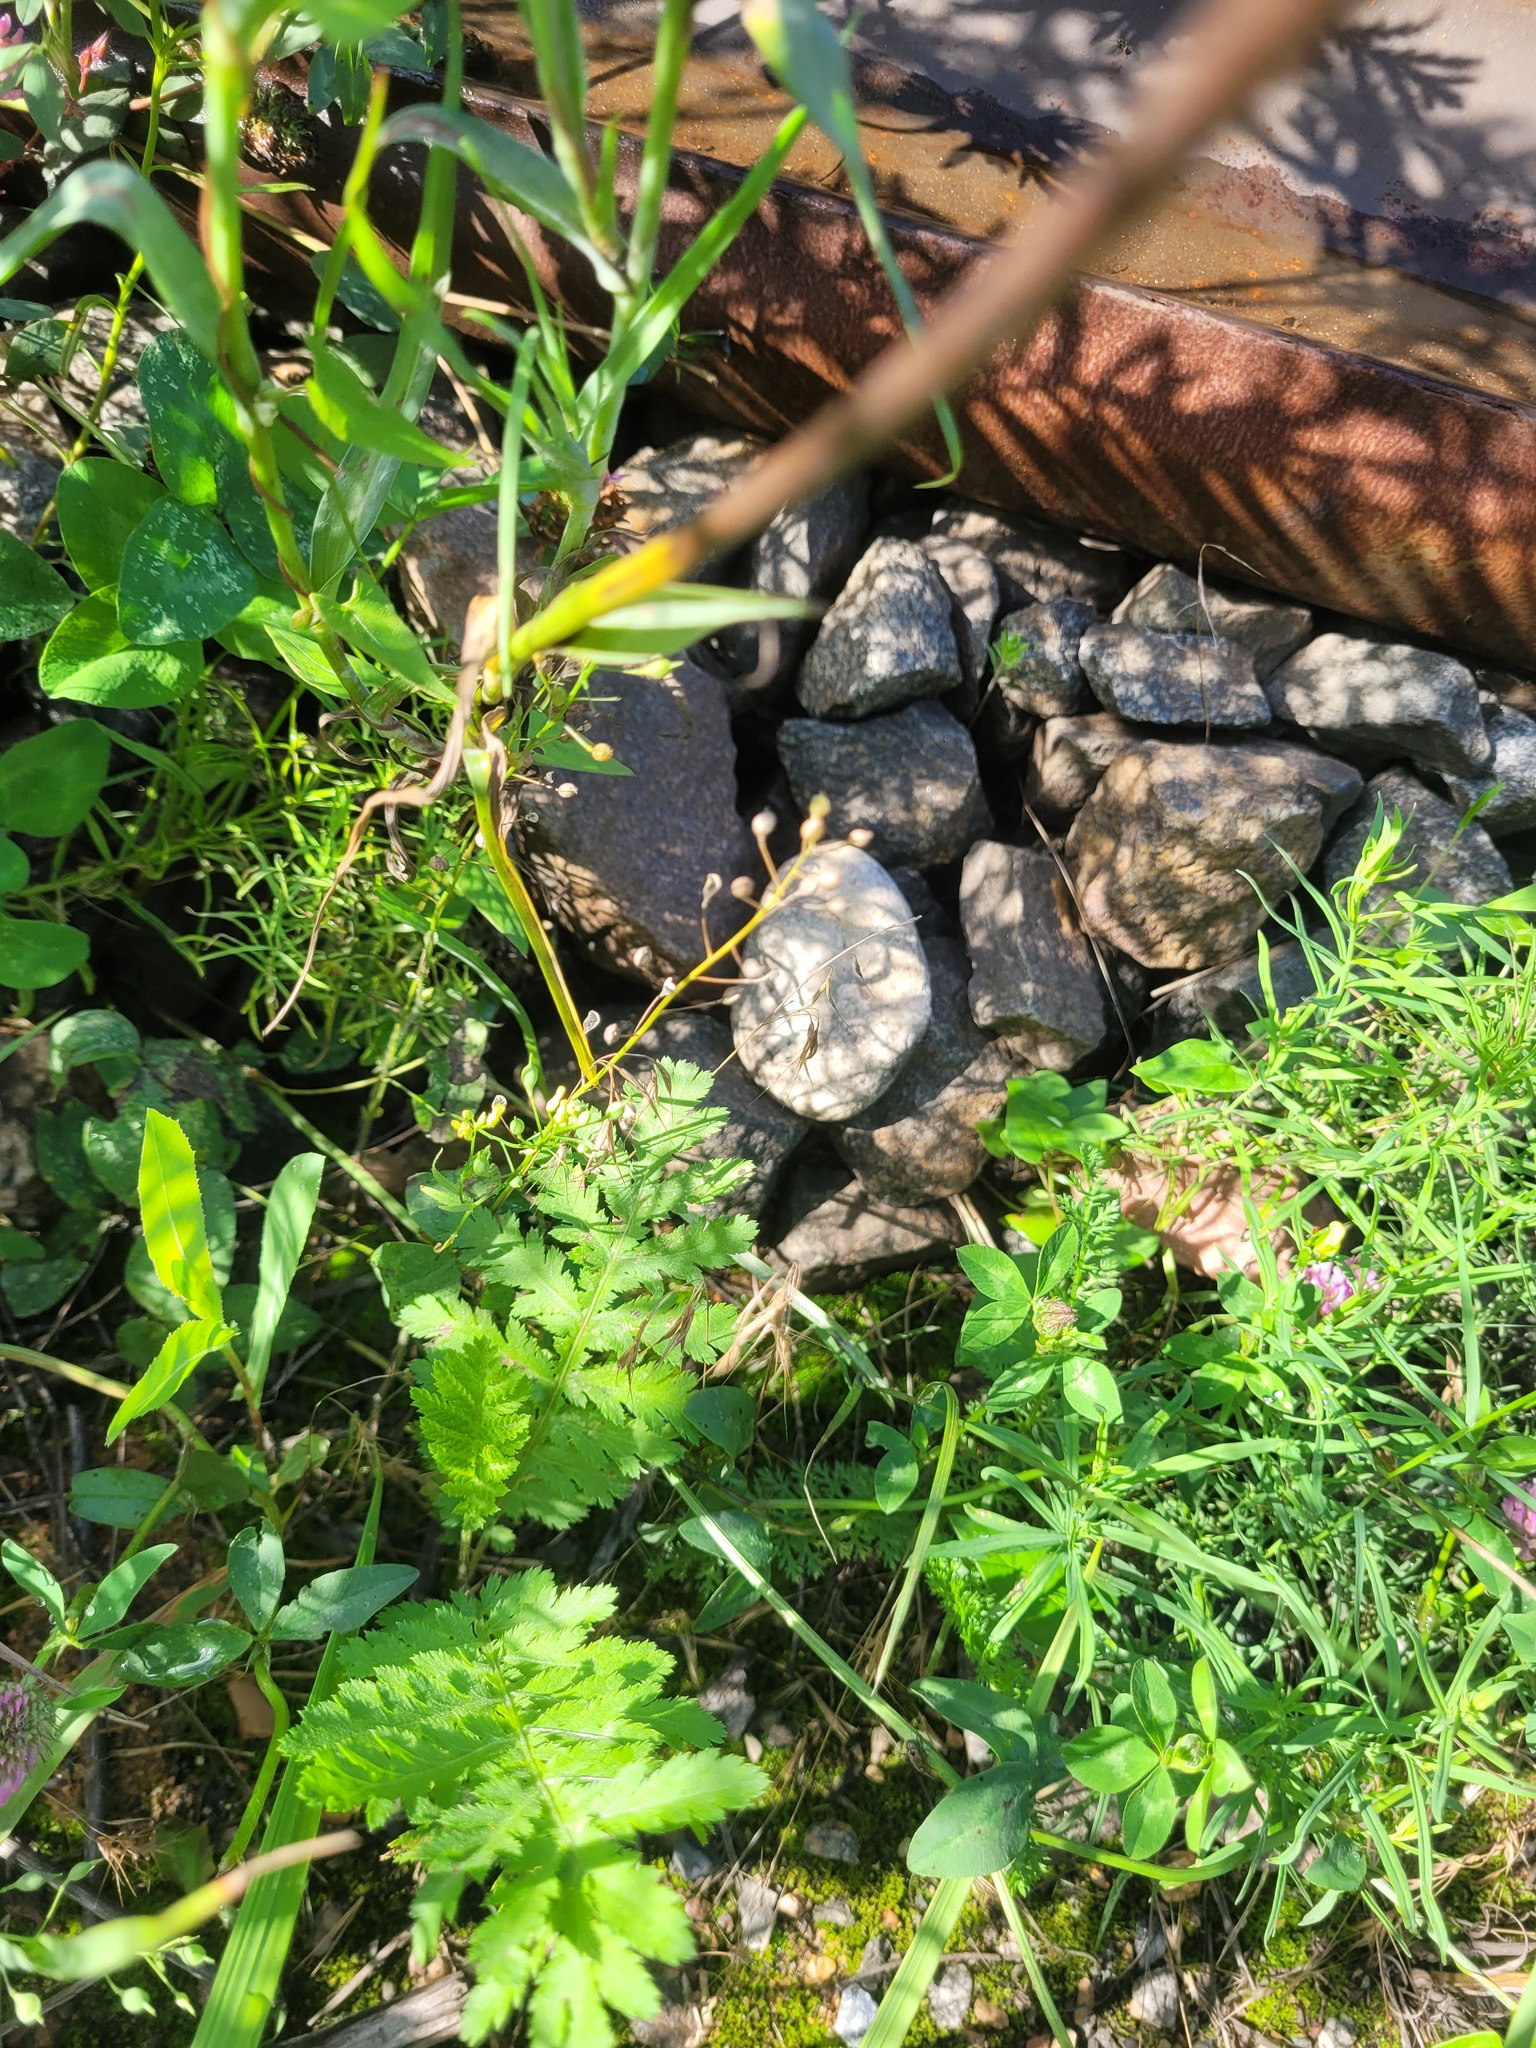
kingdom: Plantae
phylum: Tracheophyta
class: Magnoliopsida
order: Brassicales
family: Brassicaceae
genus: Camelina
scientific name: Camelina microcarpa
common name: Lesser gold-of-pleasure
